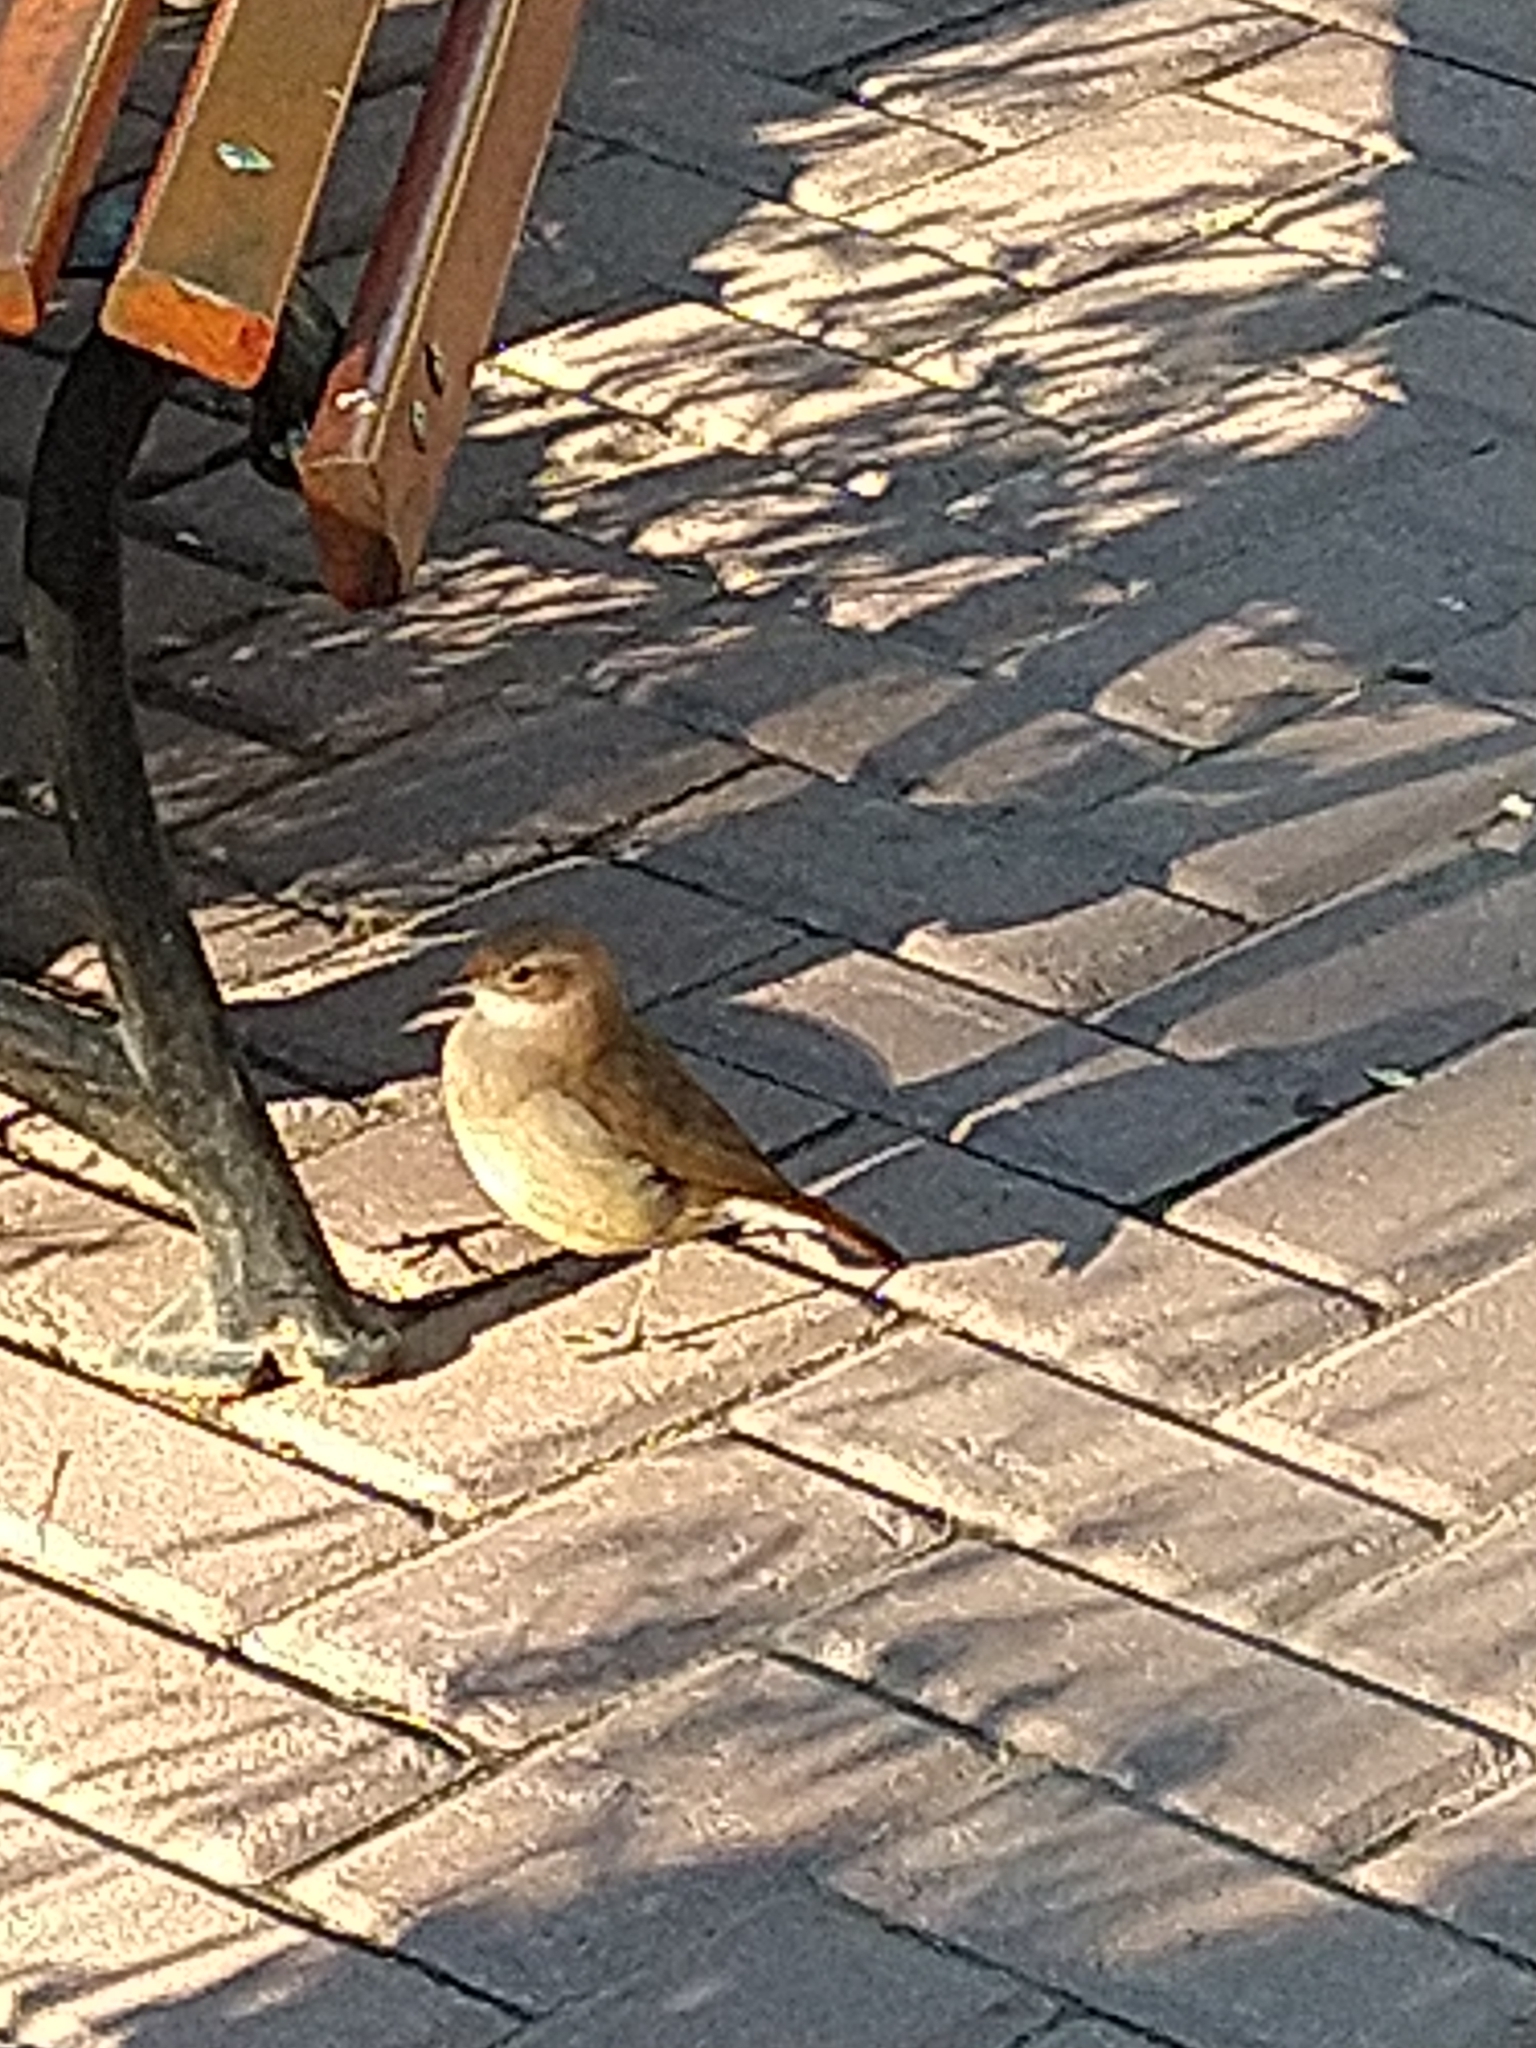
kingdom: Animalia
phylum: Chordata
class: Aves
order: Passeriformes
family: Furnariidae
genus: Furnarius
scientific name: Furnarius rufus
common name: Rufous hornero
